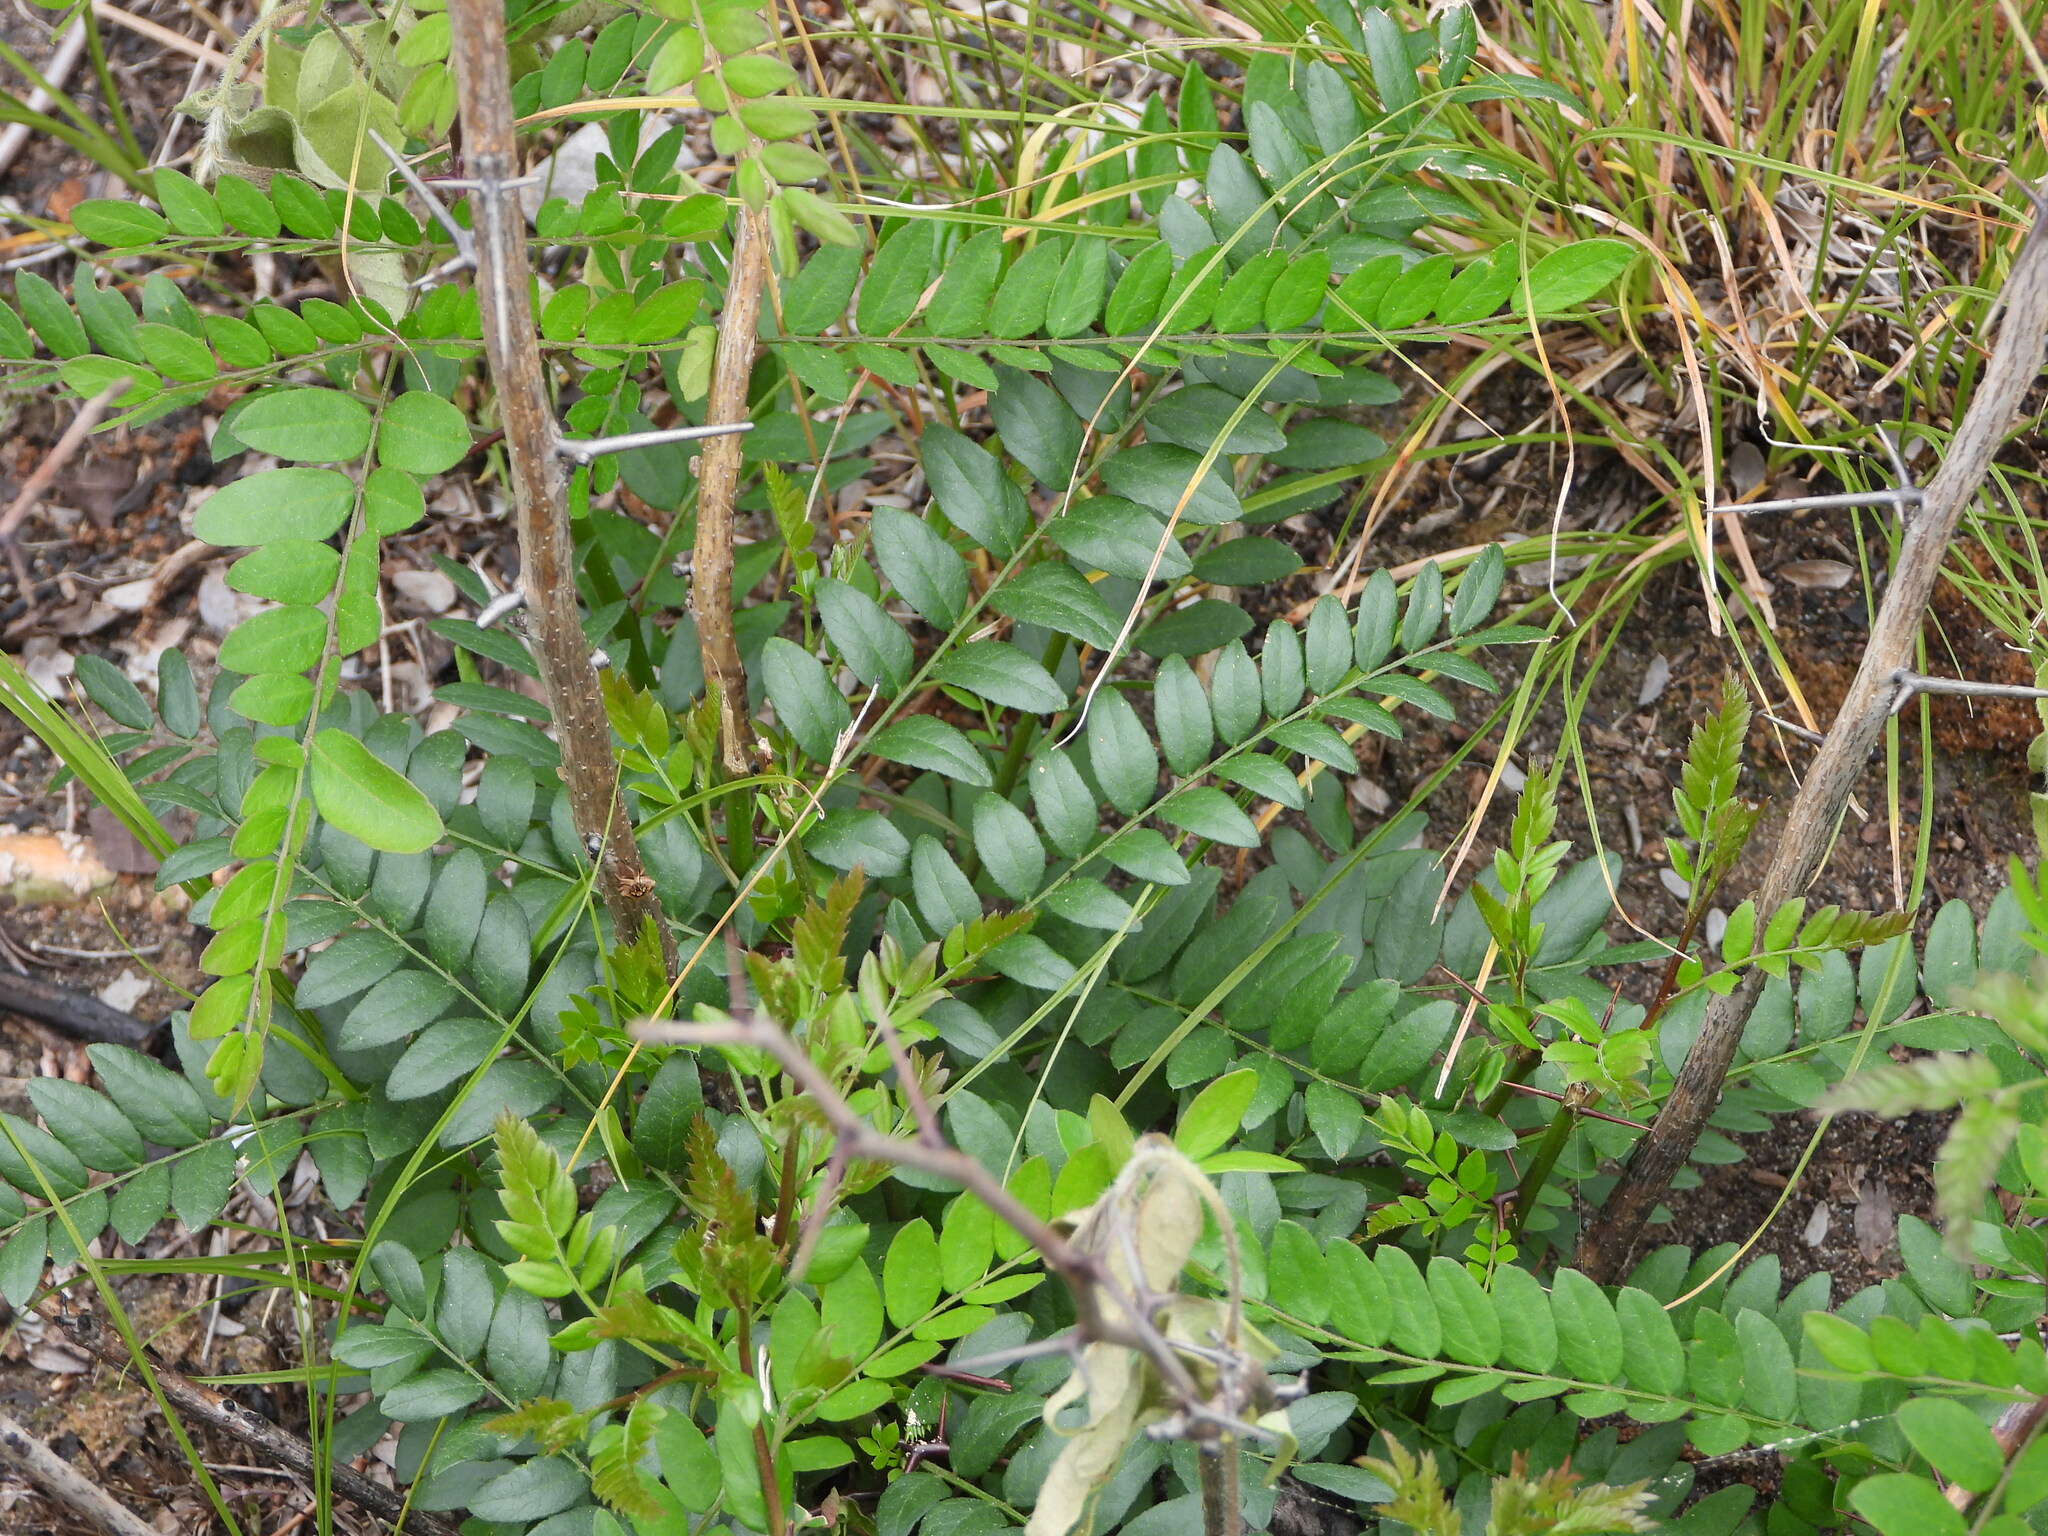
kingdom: Plantae
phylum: Tracheophyta
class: Magnoliopsida
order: Fabales
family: Fabaceae
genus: Gleditsia
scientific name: Gleditsia triacanthos
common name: Common honeylocust
